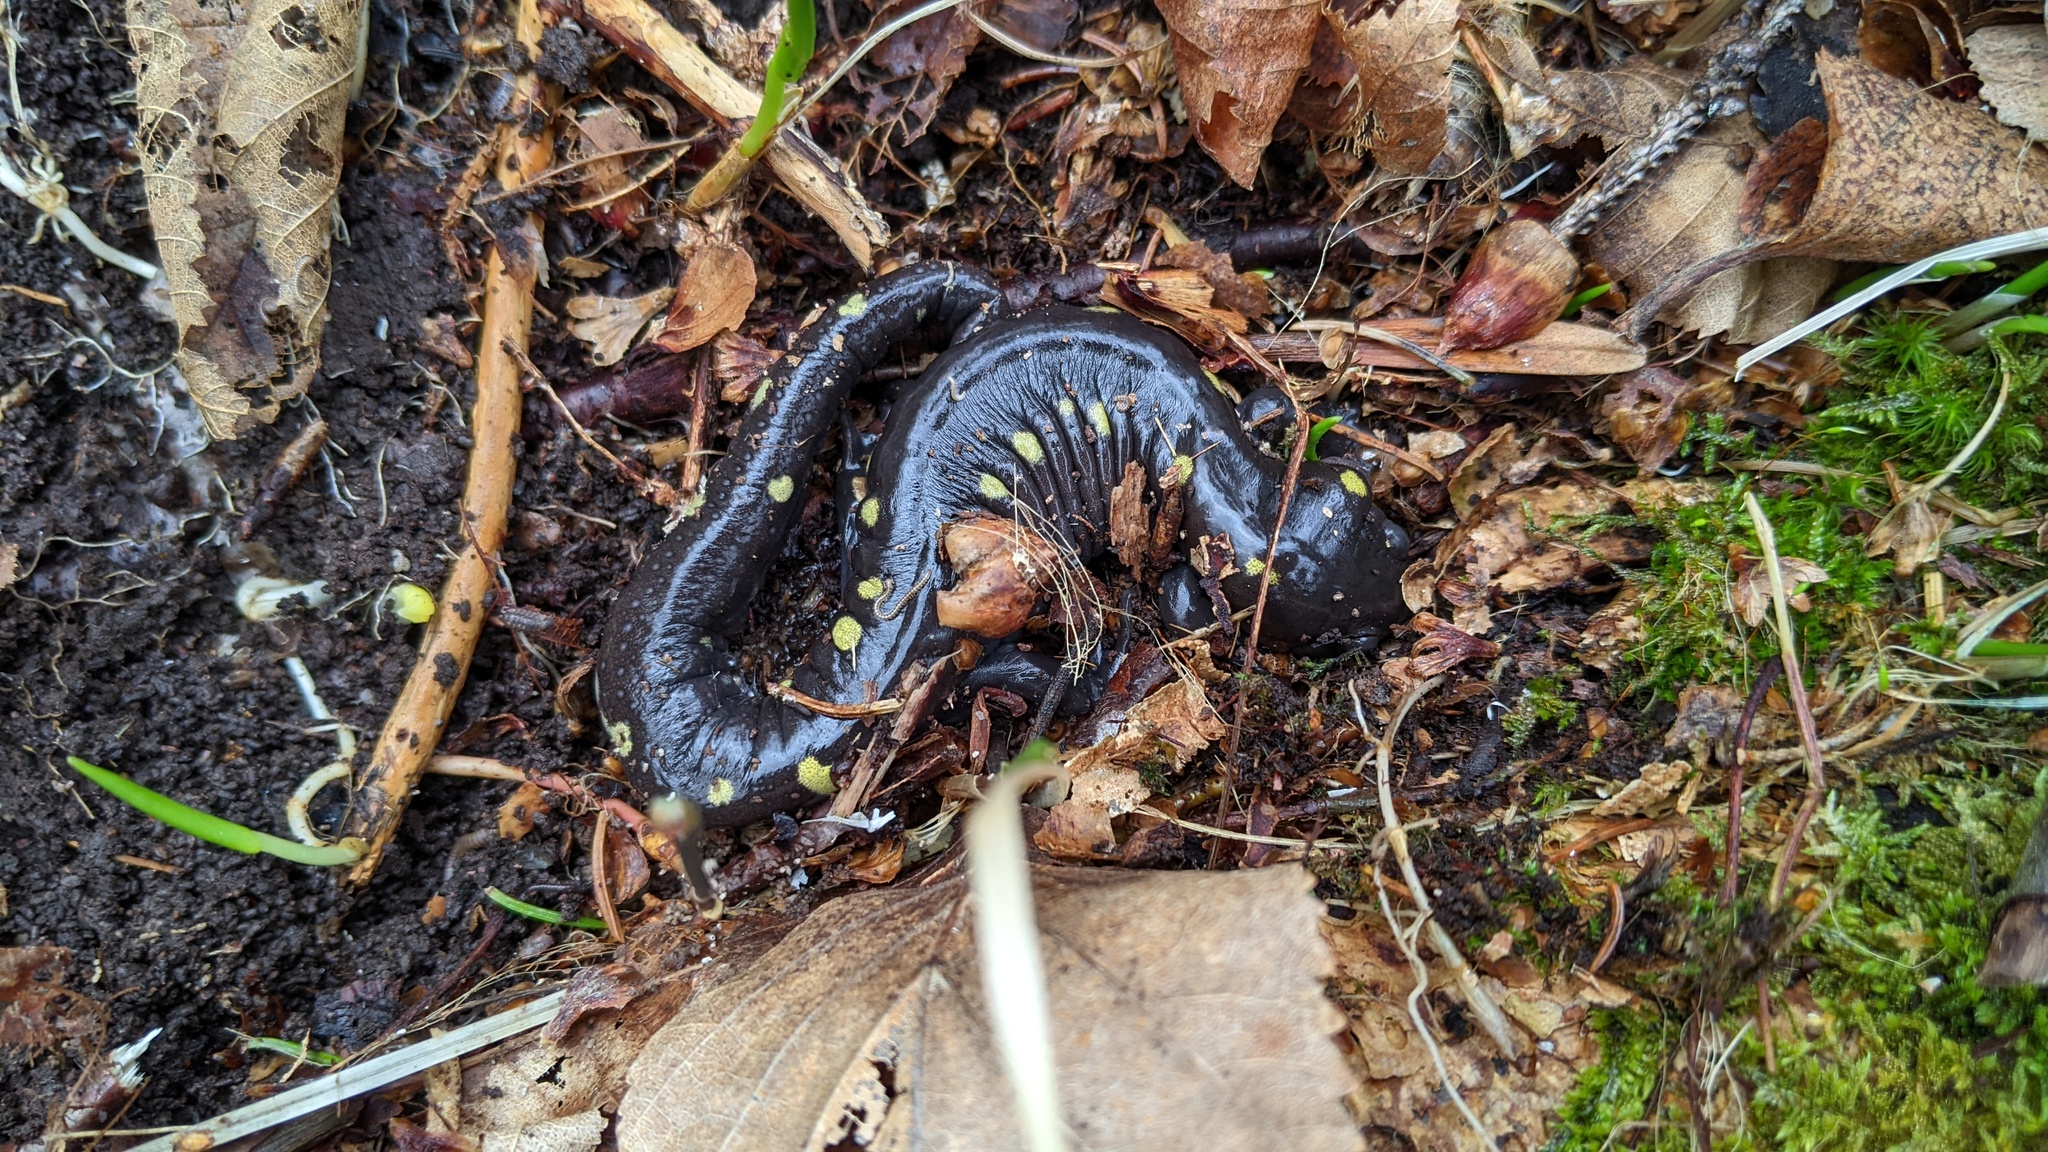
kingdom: Animalia
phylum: Chordata
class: Amphibia
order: Caudata
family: Ambystomatidae
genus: Ambystoma
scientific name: Ambystoma maculatum
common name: Spotted salamander
